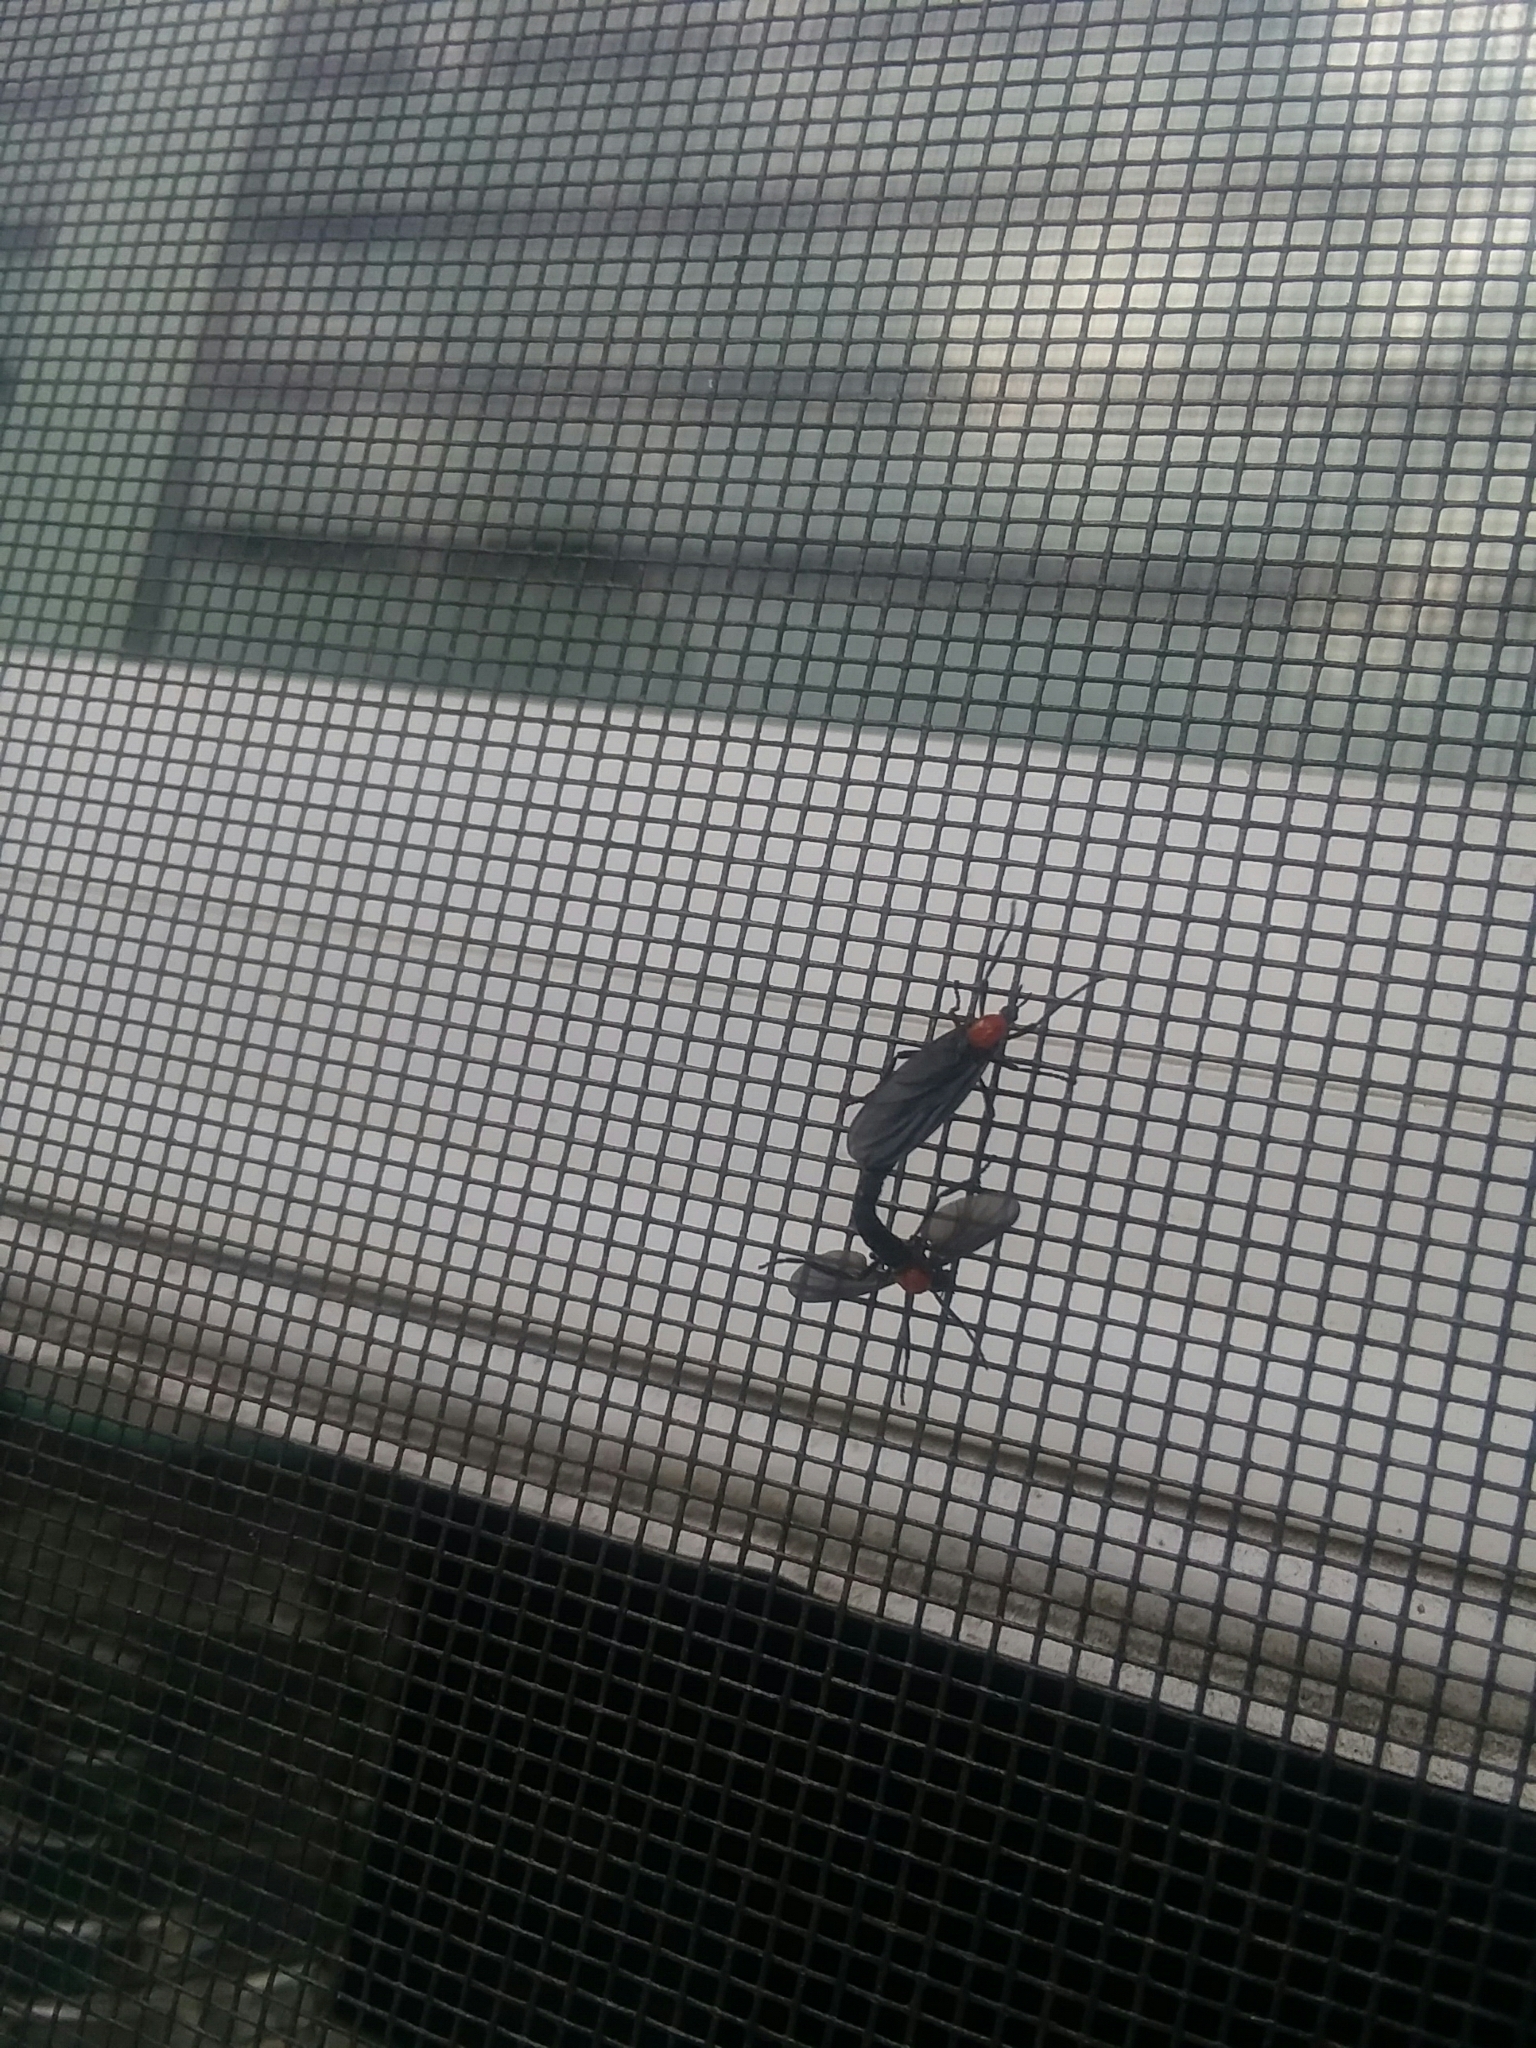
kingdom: Animalia
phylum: Arthropoda
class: Insecta
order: Diptera
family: Bibionidae
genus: Plecia
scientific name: Plecia nearctica
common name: March fly
